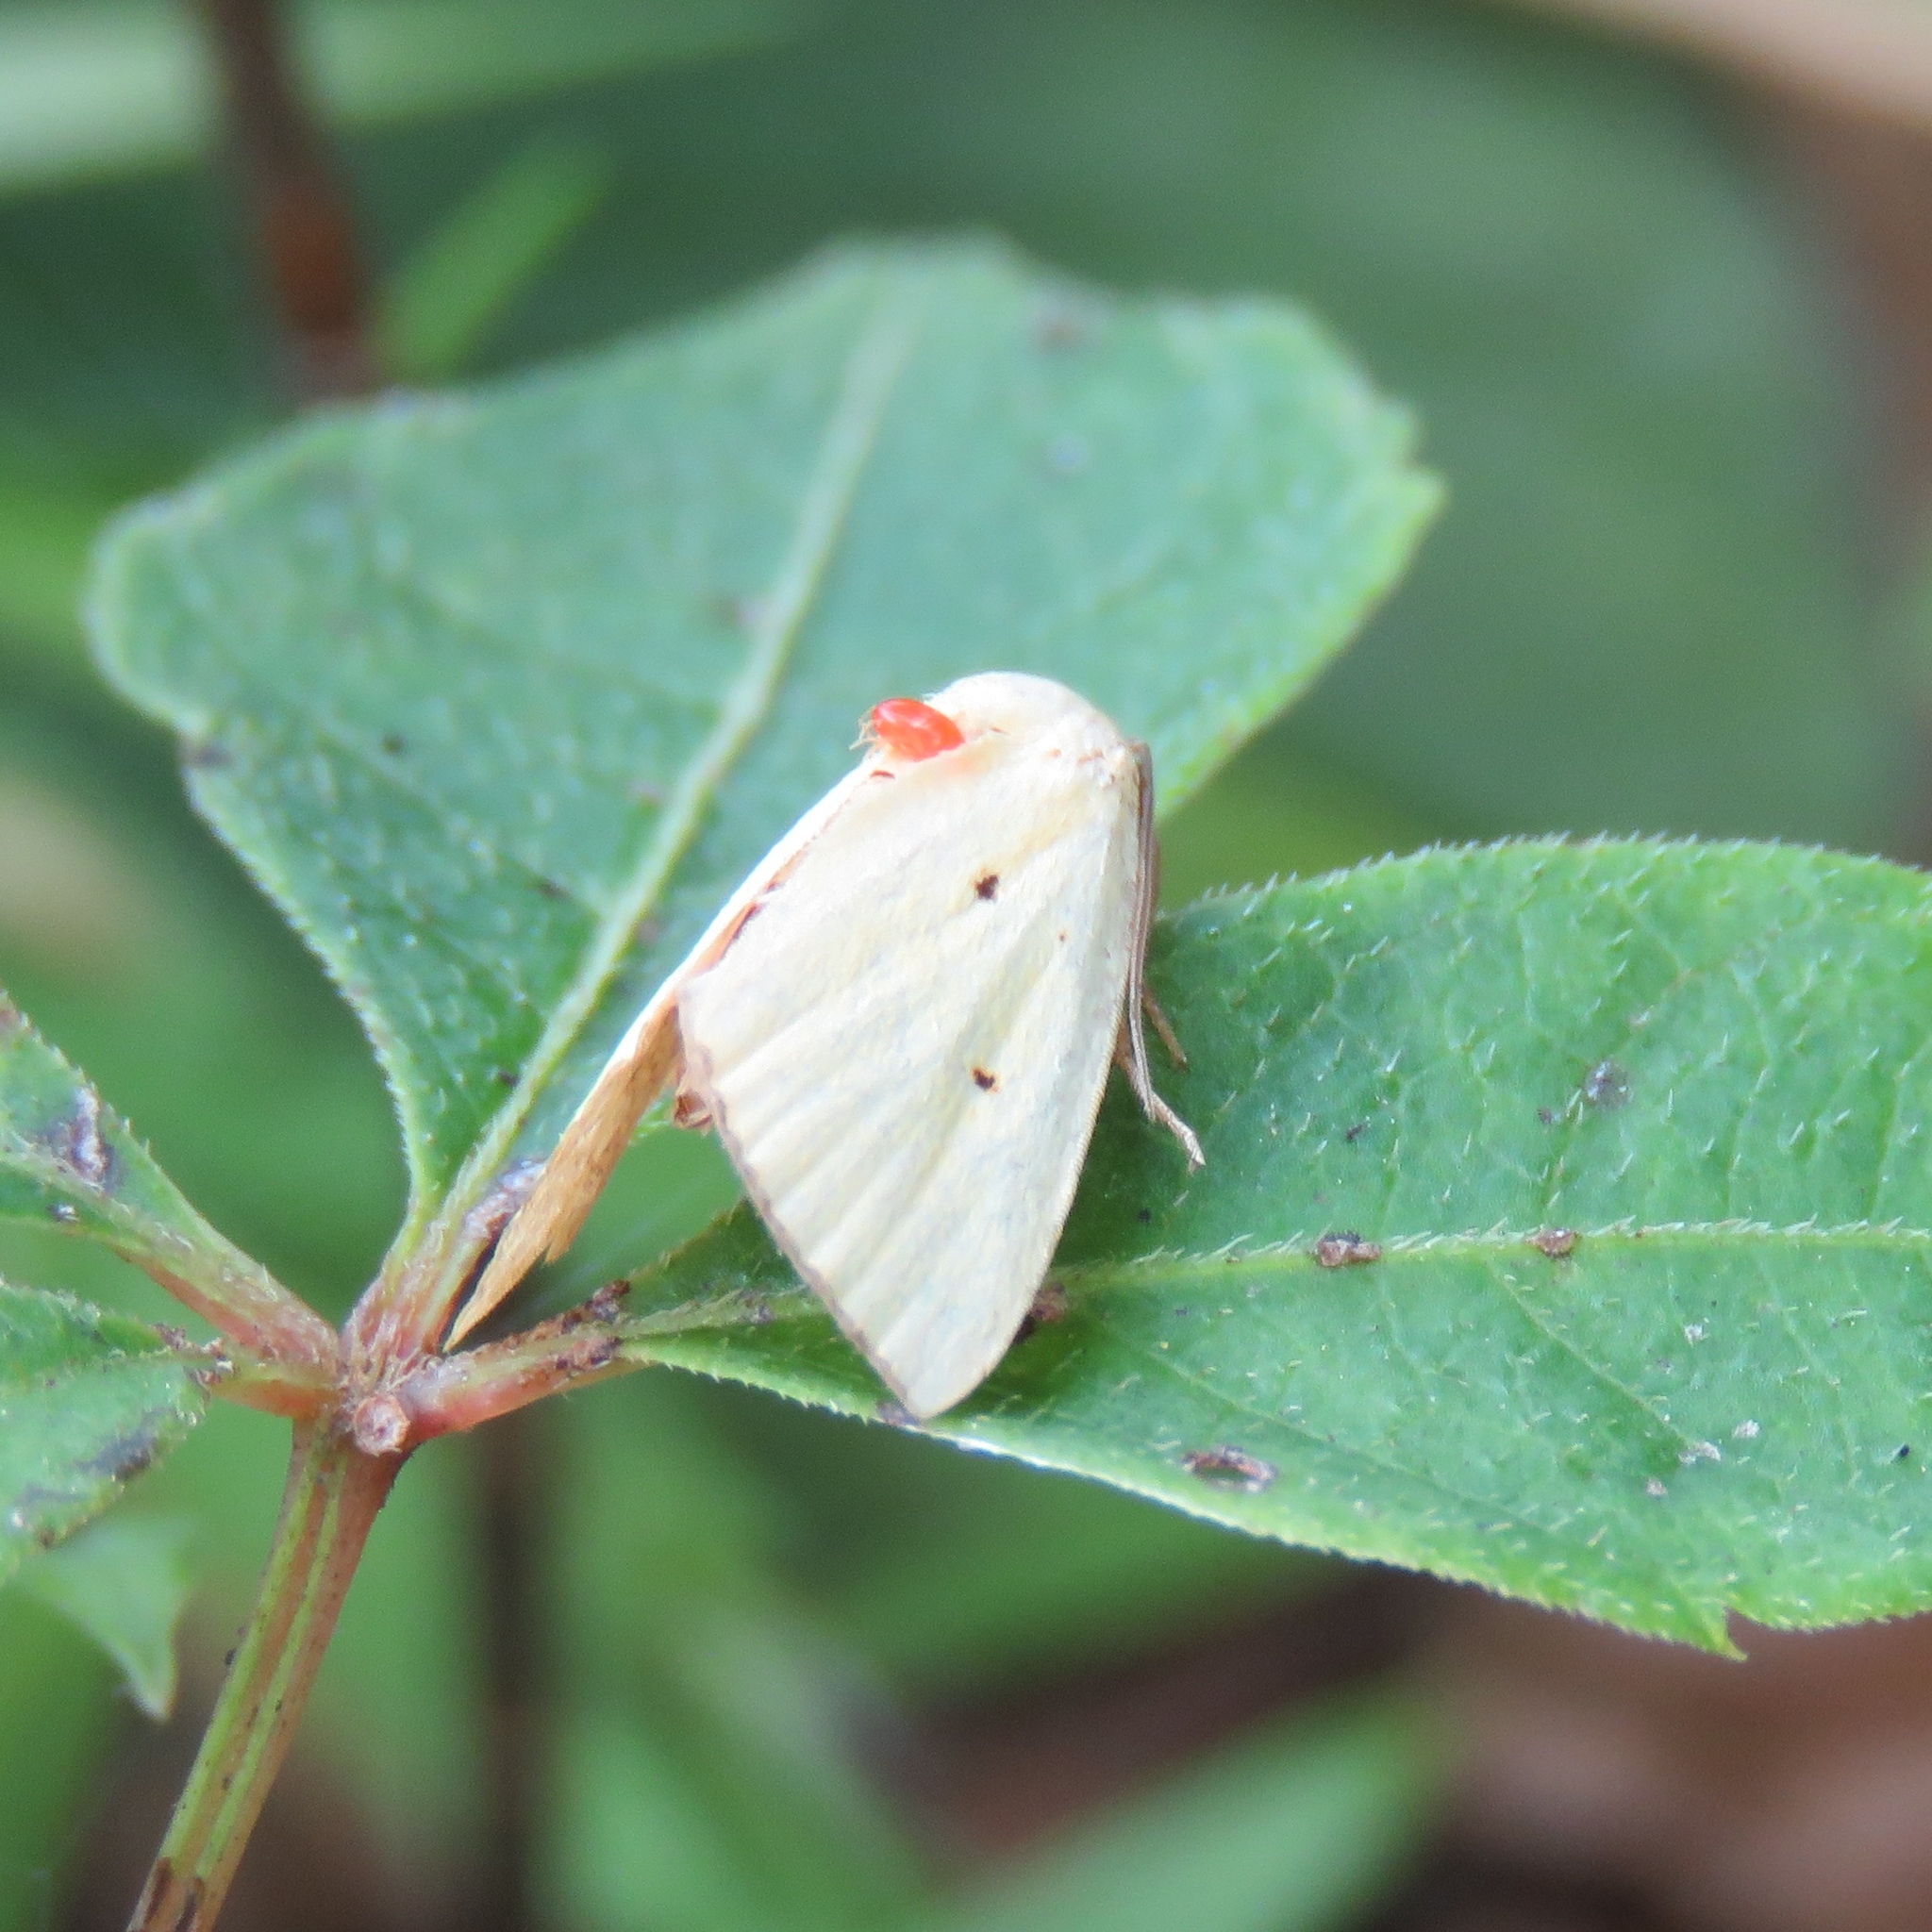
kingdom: Animalia
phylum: Arthropoda
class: Insecta
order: Lepidoptera
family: Noctuidae
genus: Marimatha
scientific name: Marimatha nigrofimbria
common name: Black-bordered lemon moth
